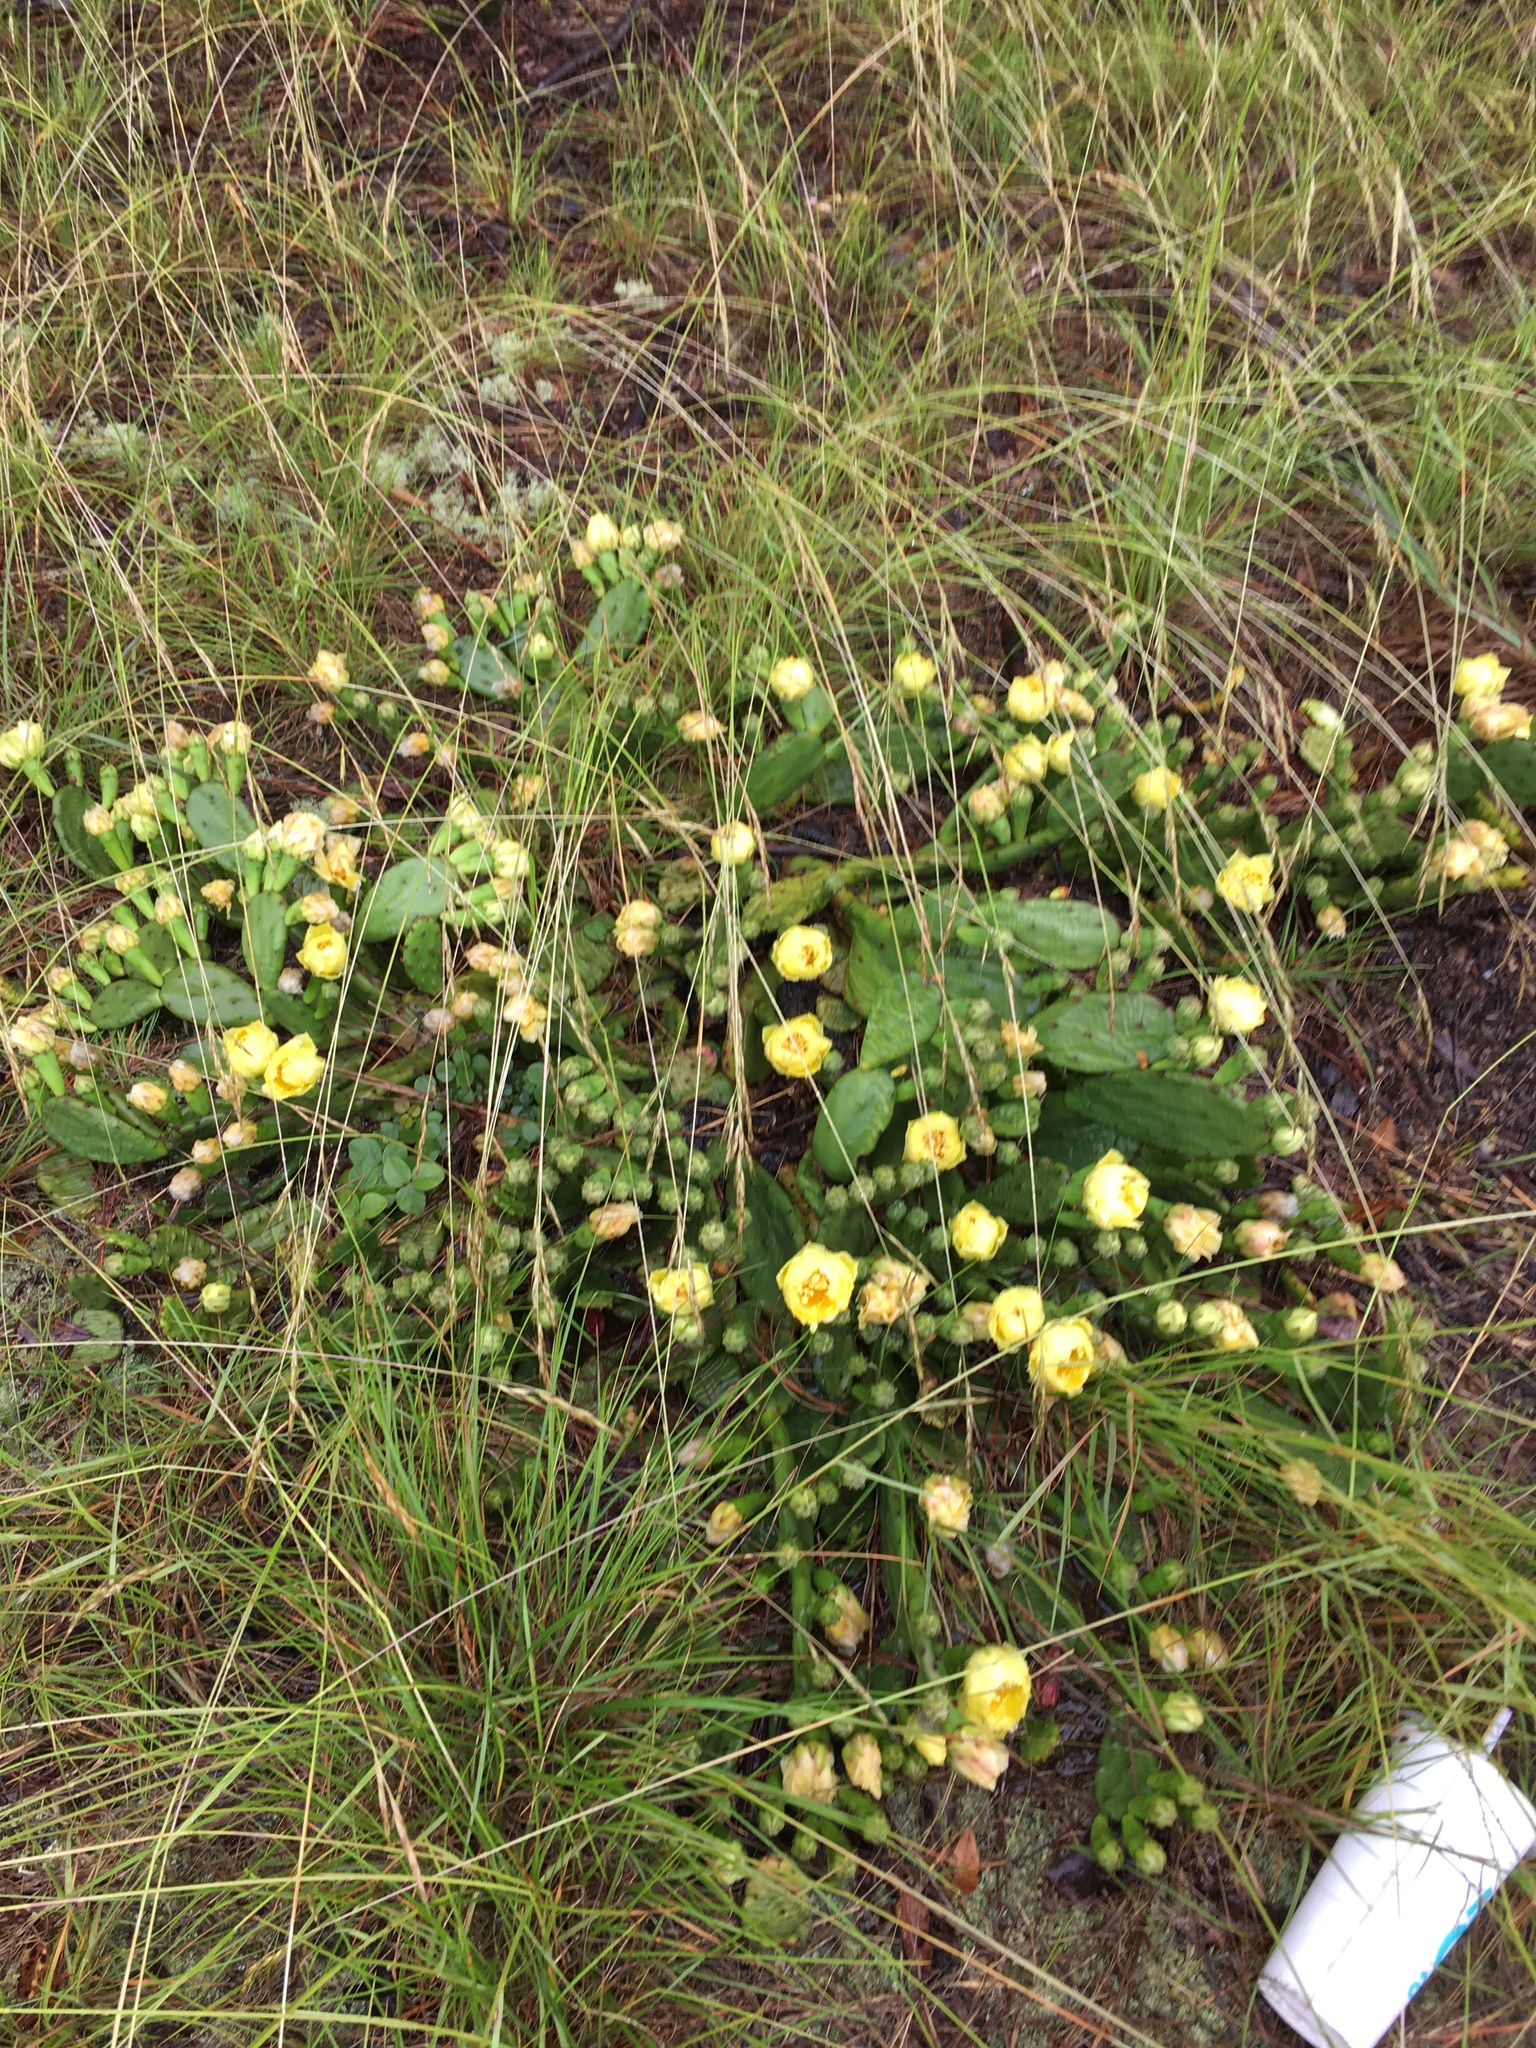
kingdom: Plantae
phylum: Tracheophyta
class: Magnoliopsida
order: Caryophyllales
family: Cactaceae
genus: Opuntia
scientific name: Opuntia mesacantha
